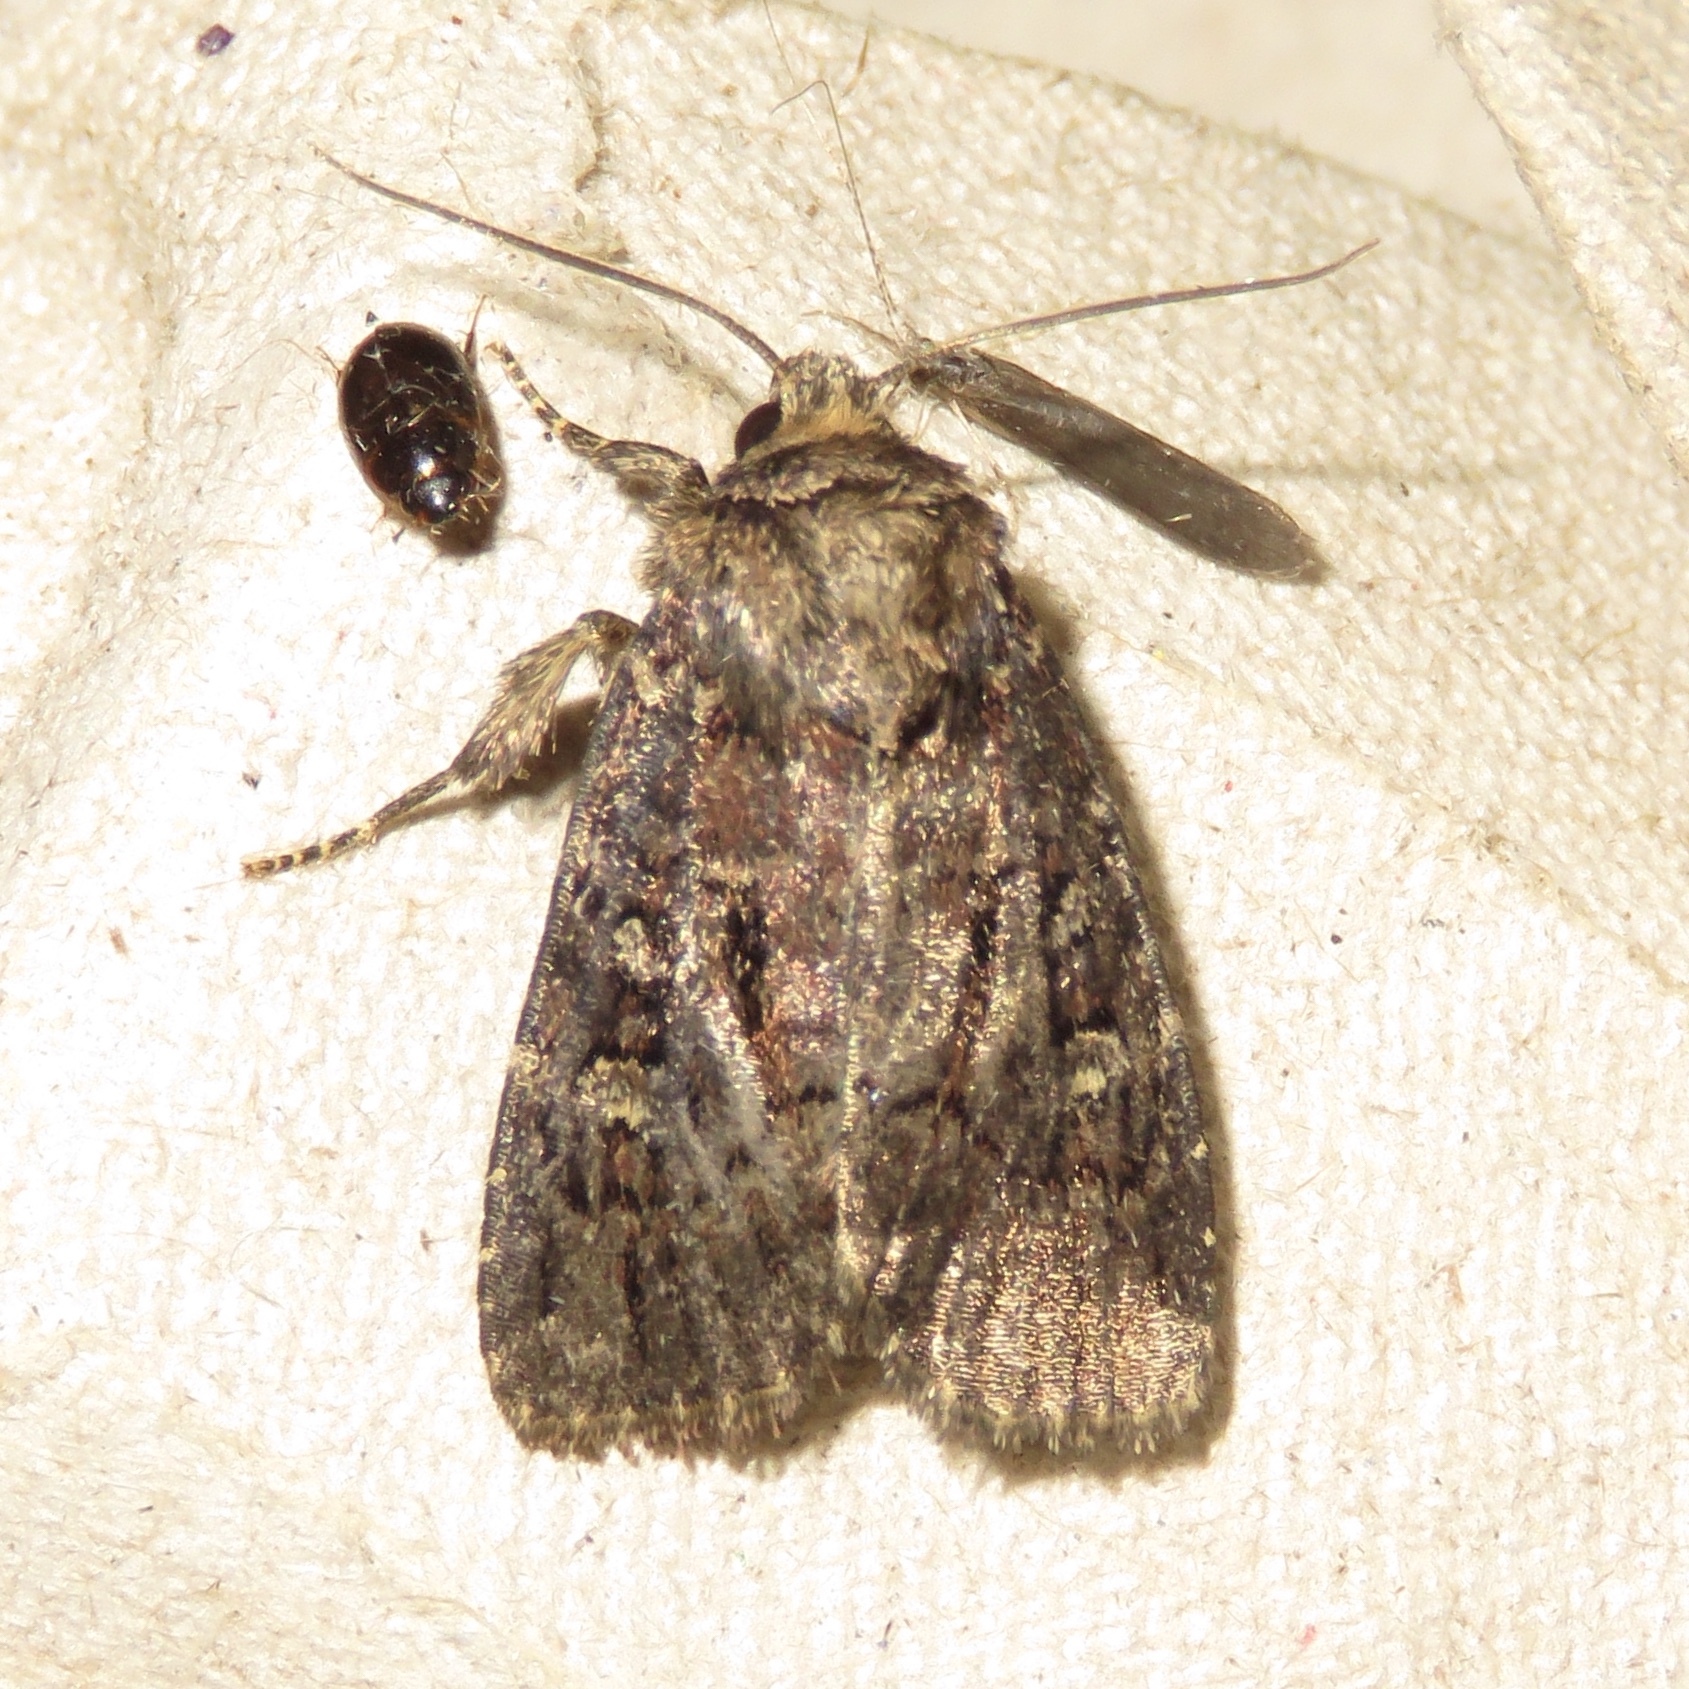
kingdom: Animalia
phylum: Arthropoda
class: Insecta
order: Lepidoptera
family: Noctuidae
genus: Lacinipolia
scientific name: Lacinipolia renigera
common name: Kidney-spotted minor
